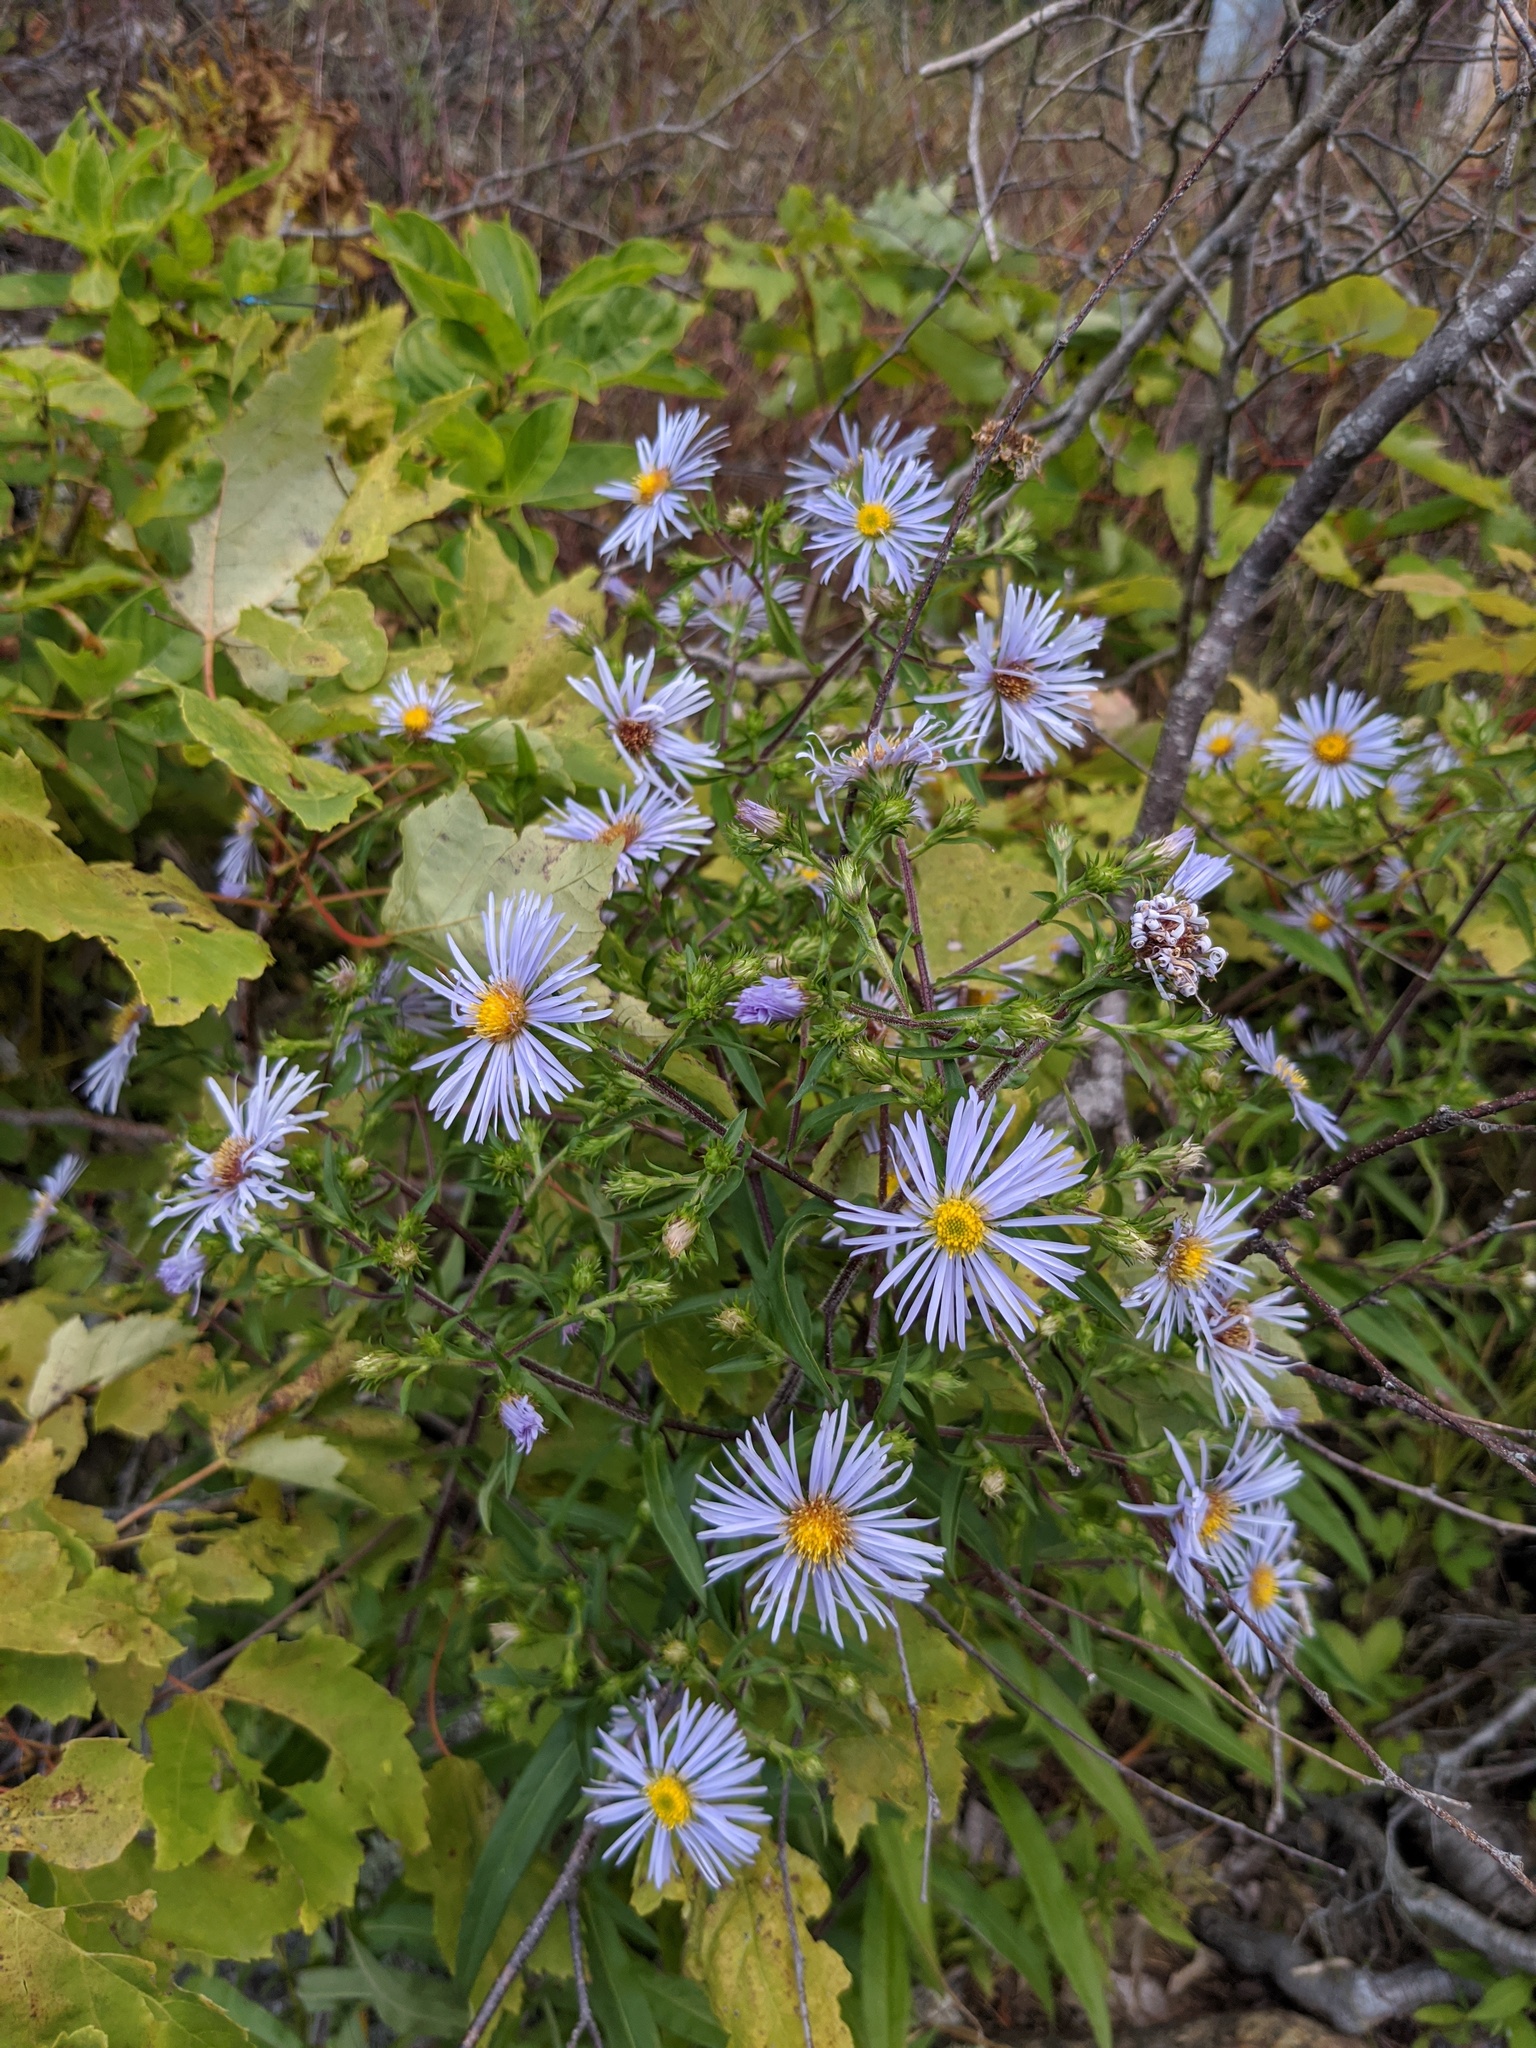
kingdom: Plantae
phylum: Tracheophyta
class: Magnoliopsida
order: Asterales
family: Asteraceae
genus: Symphyotrichum
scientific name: Symphyotrichum puniceum
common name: Bog aster
